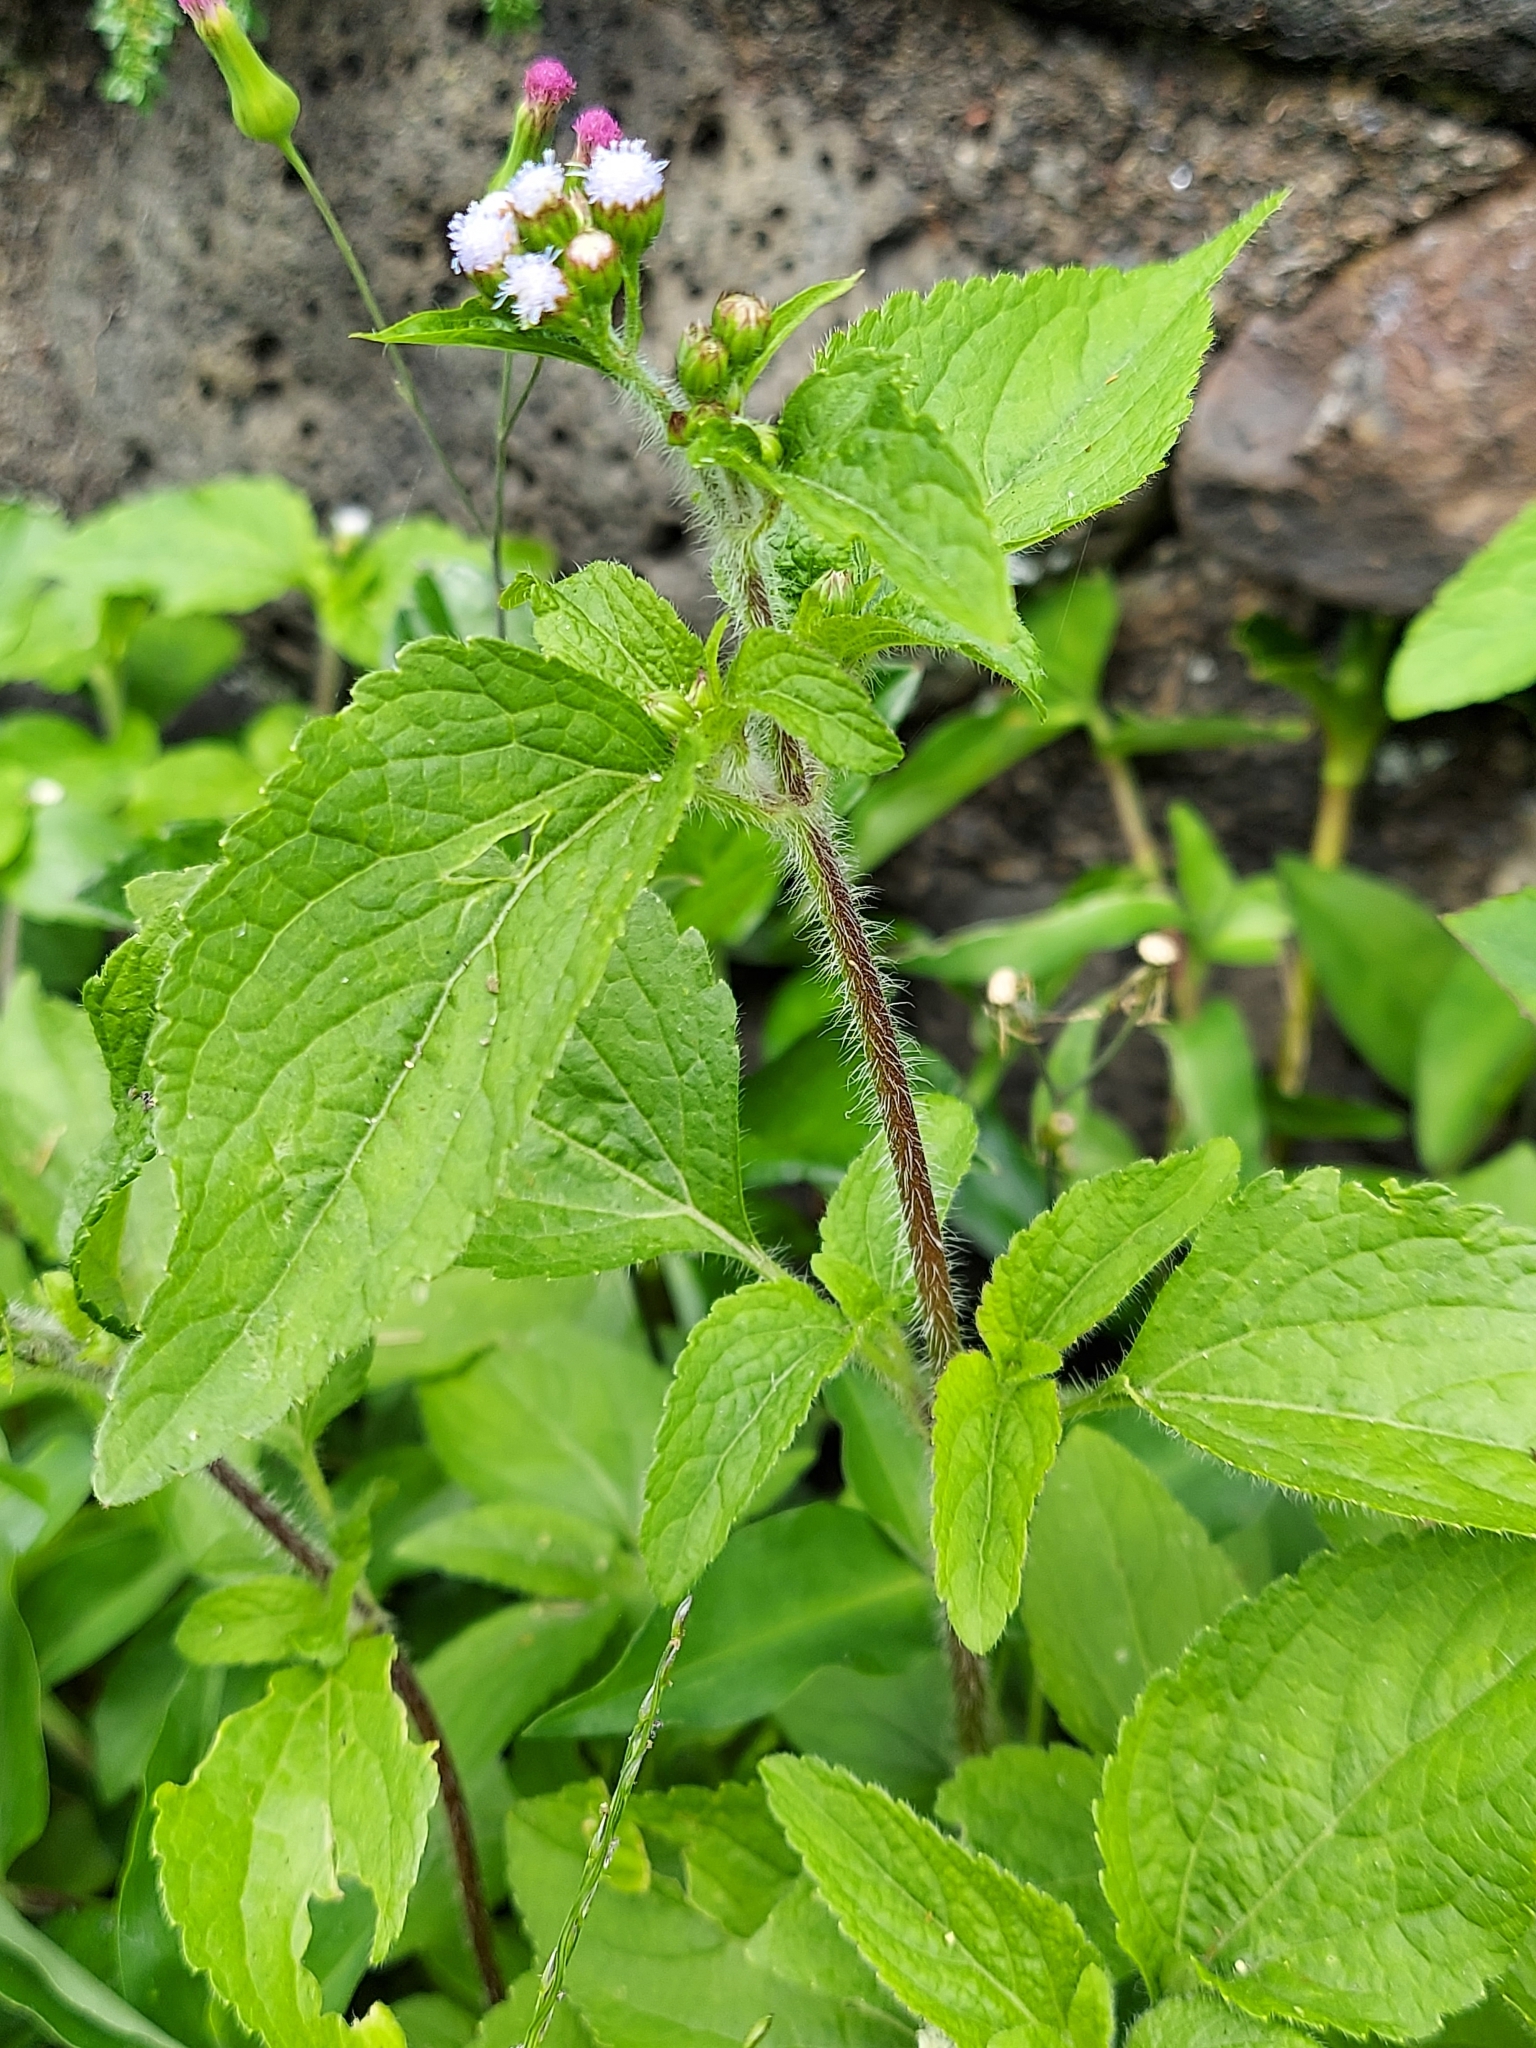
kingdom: Plantae
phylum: Tracheophyta
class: Magnoliopsida
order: Asterales
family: Asteraceae
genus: Ageratum
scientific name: Ageratum conyzoides
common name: Tropical whiteweed
